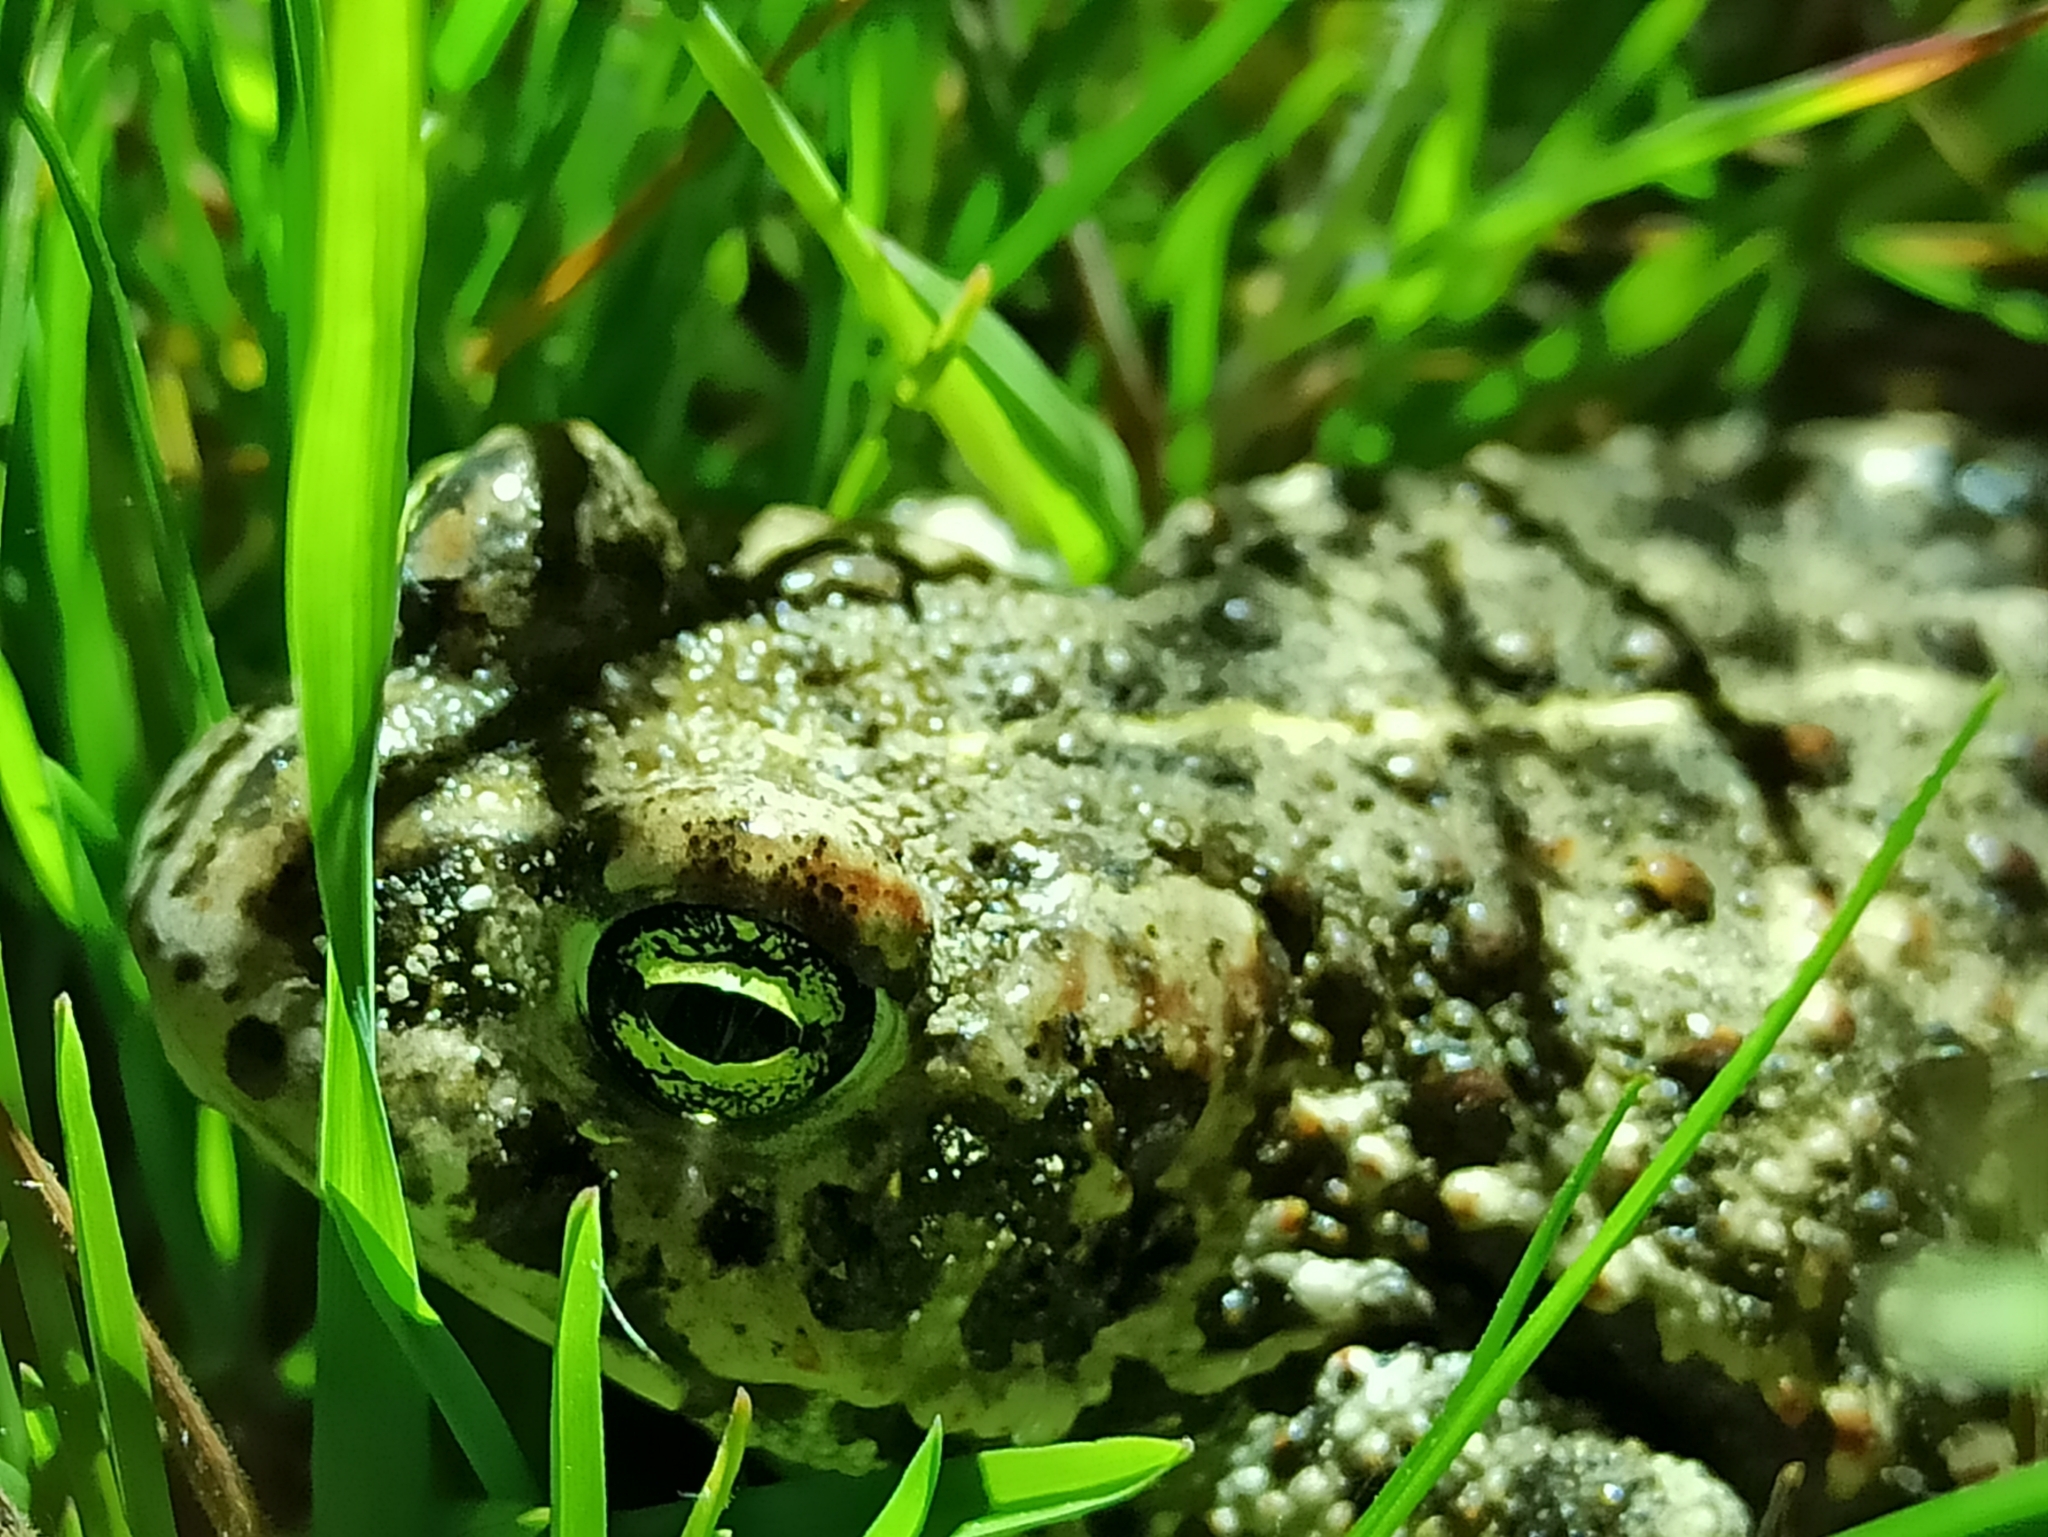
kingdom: Animalia
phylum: Chordata
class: Amphibia
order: Anura
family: Bufonidae
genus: Epidalea
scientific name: Epidalea calamita
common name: Natterjack toad
